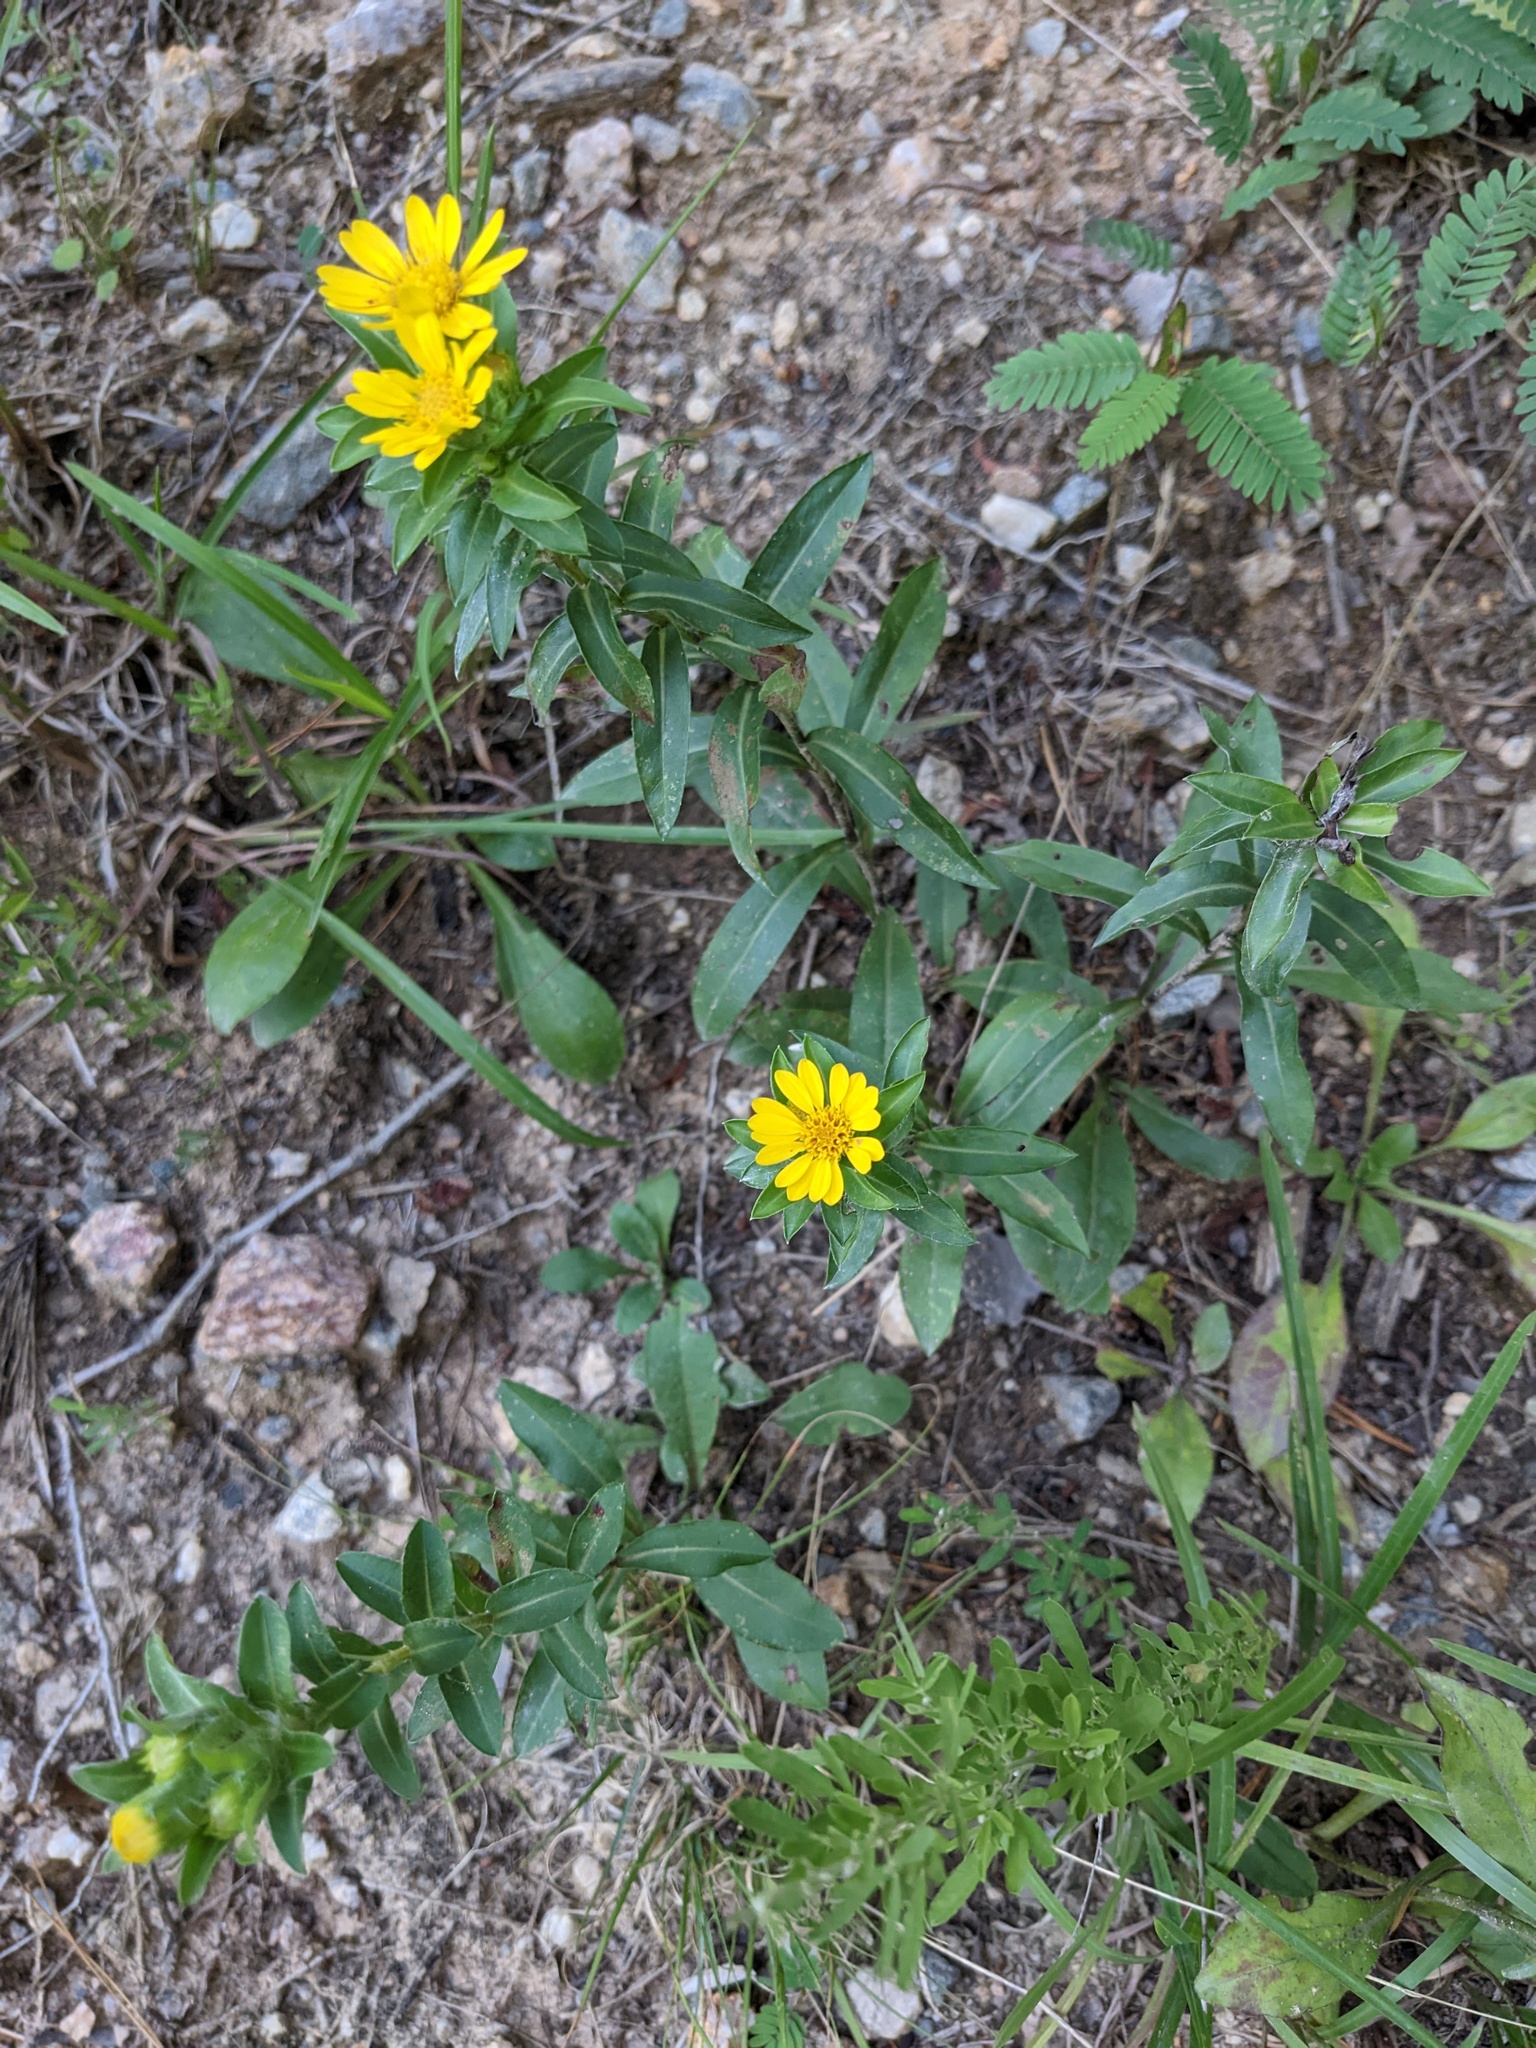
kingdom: Plantae
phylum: Tracheophyta
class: Magnoliopsida
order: Asterales
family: Asteraceae
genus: Chrysopsis
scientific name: Chrysopsis mariana
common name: Maryland golden-aster
